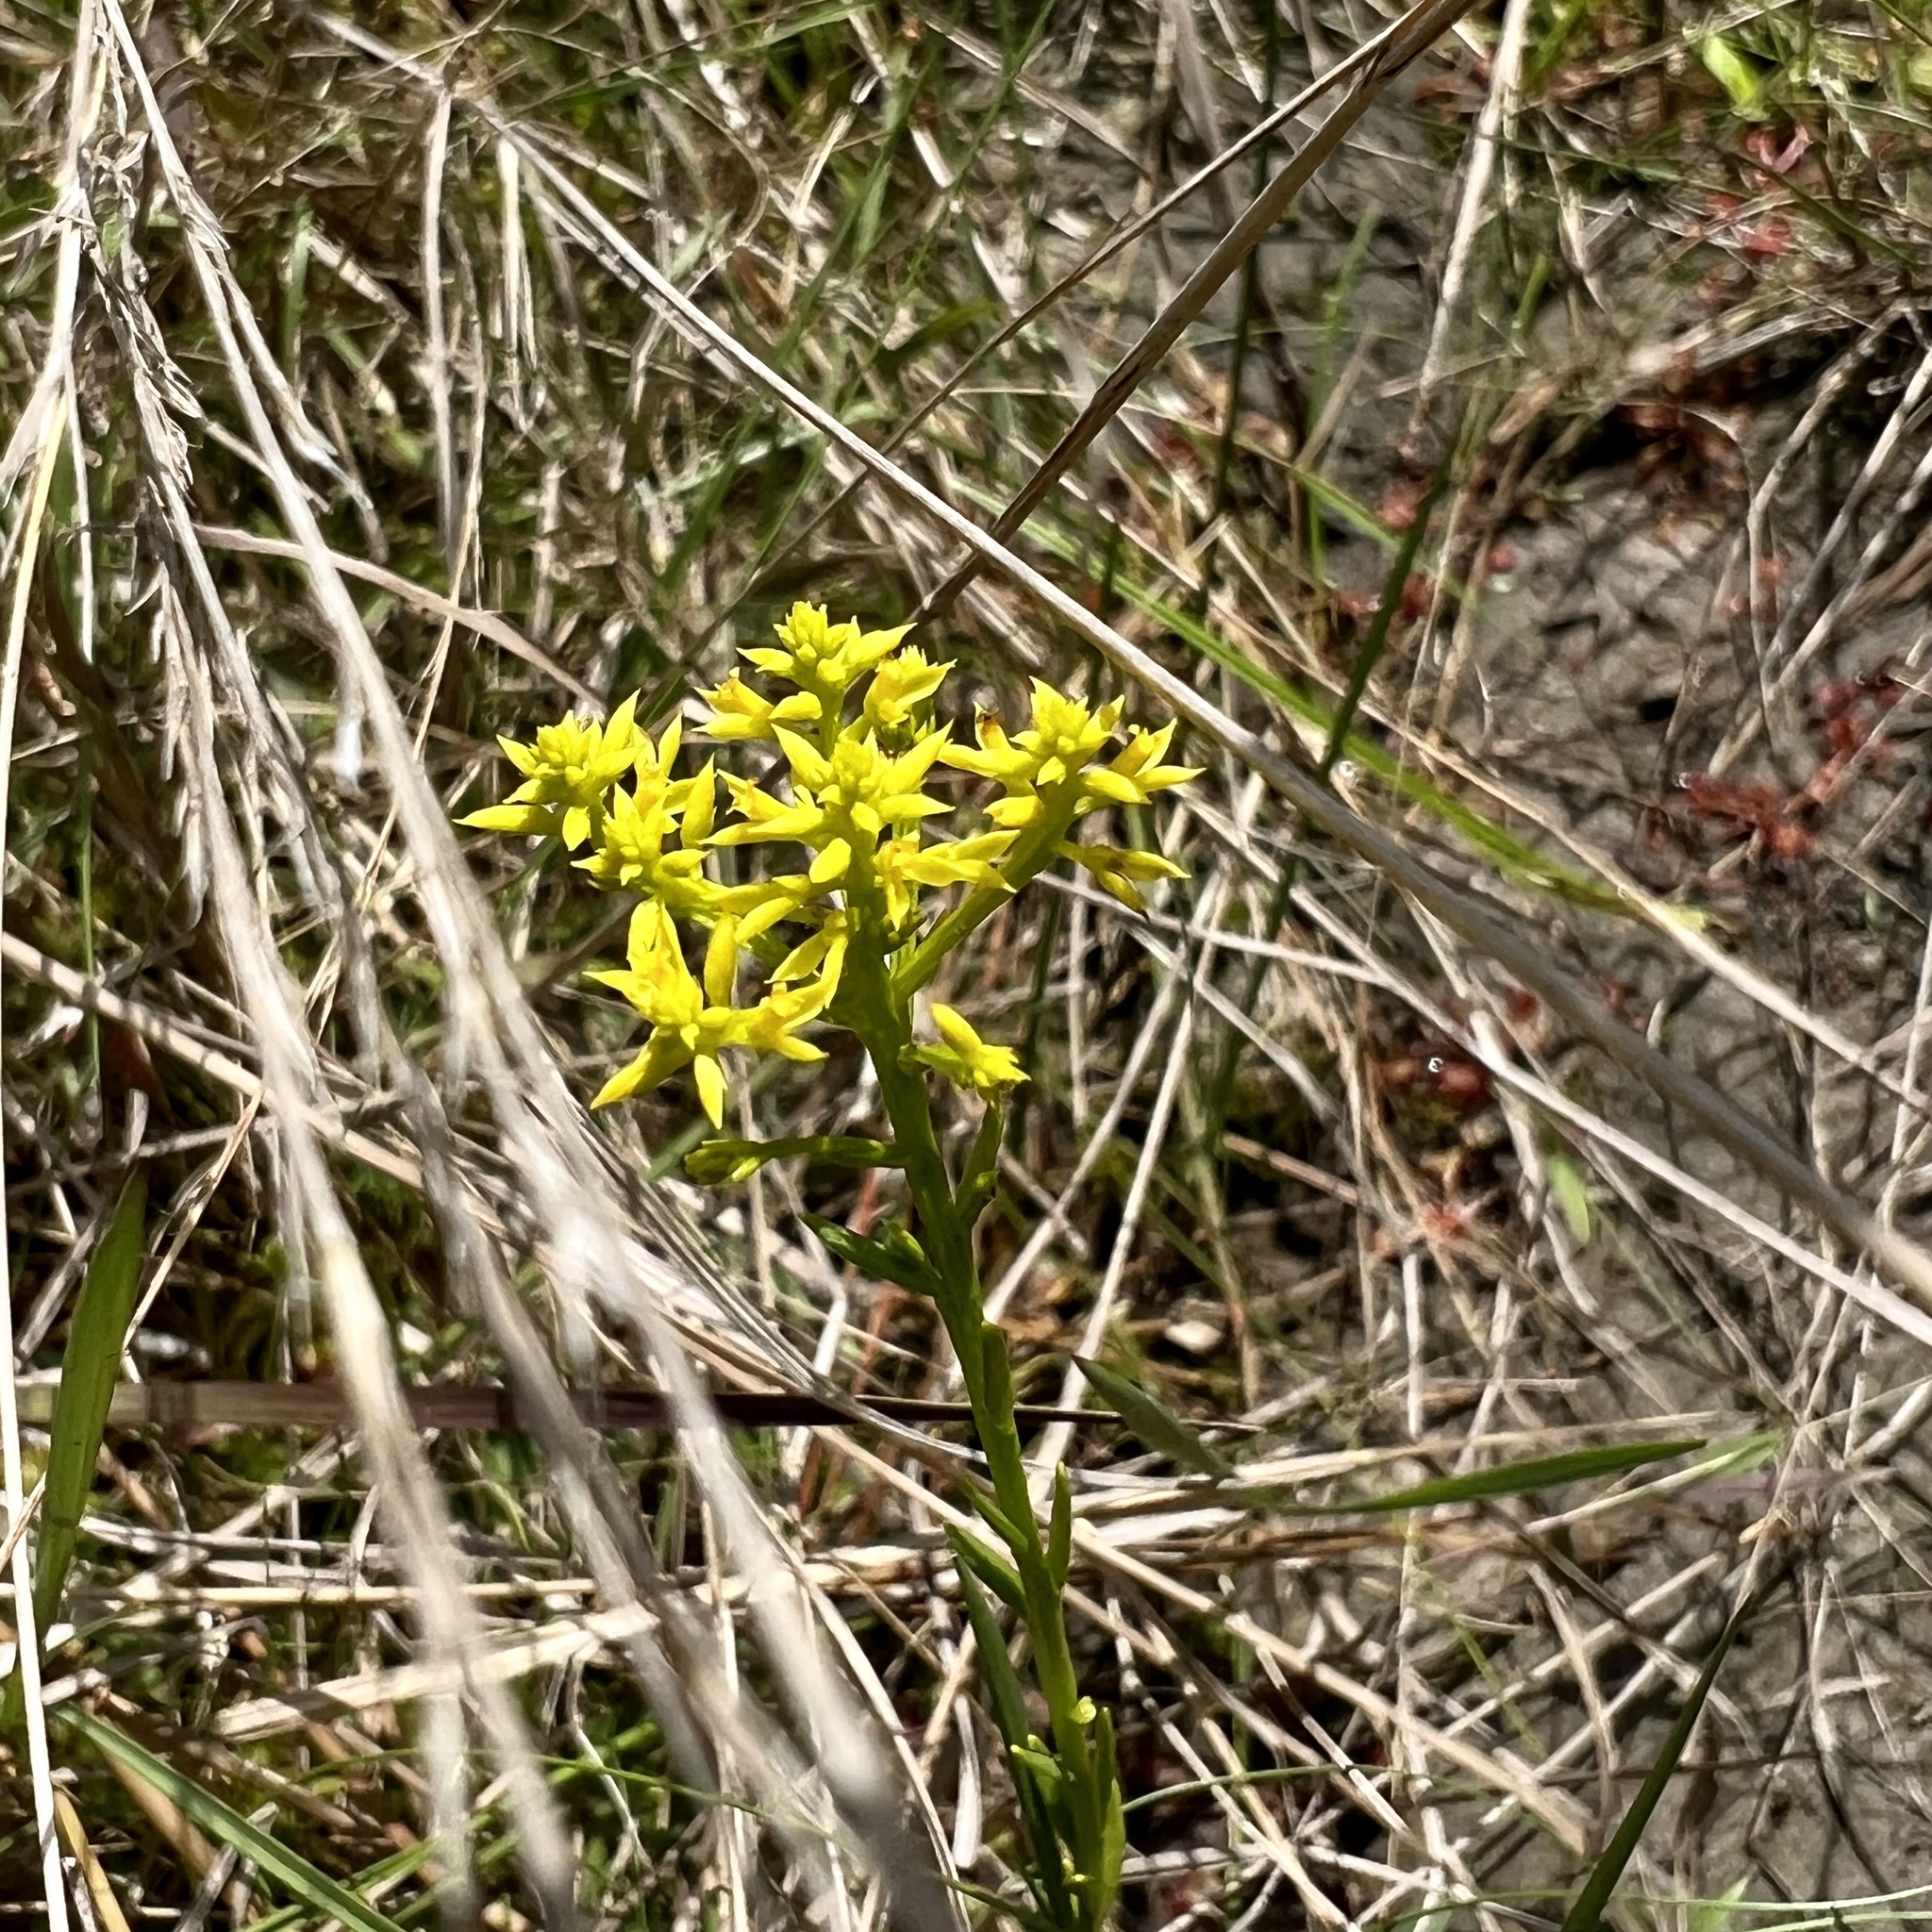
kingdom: Plantae
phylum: Tracheophyta
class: Magnoliopsida
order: Fabales
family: Polygalaceae
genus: Polygala
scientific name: Polygala ramosa
